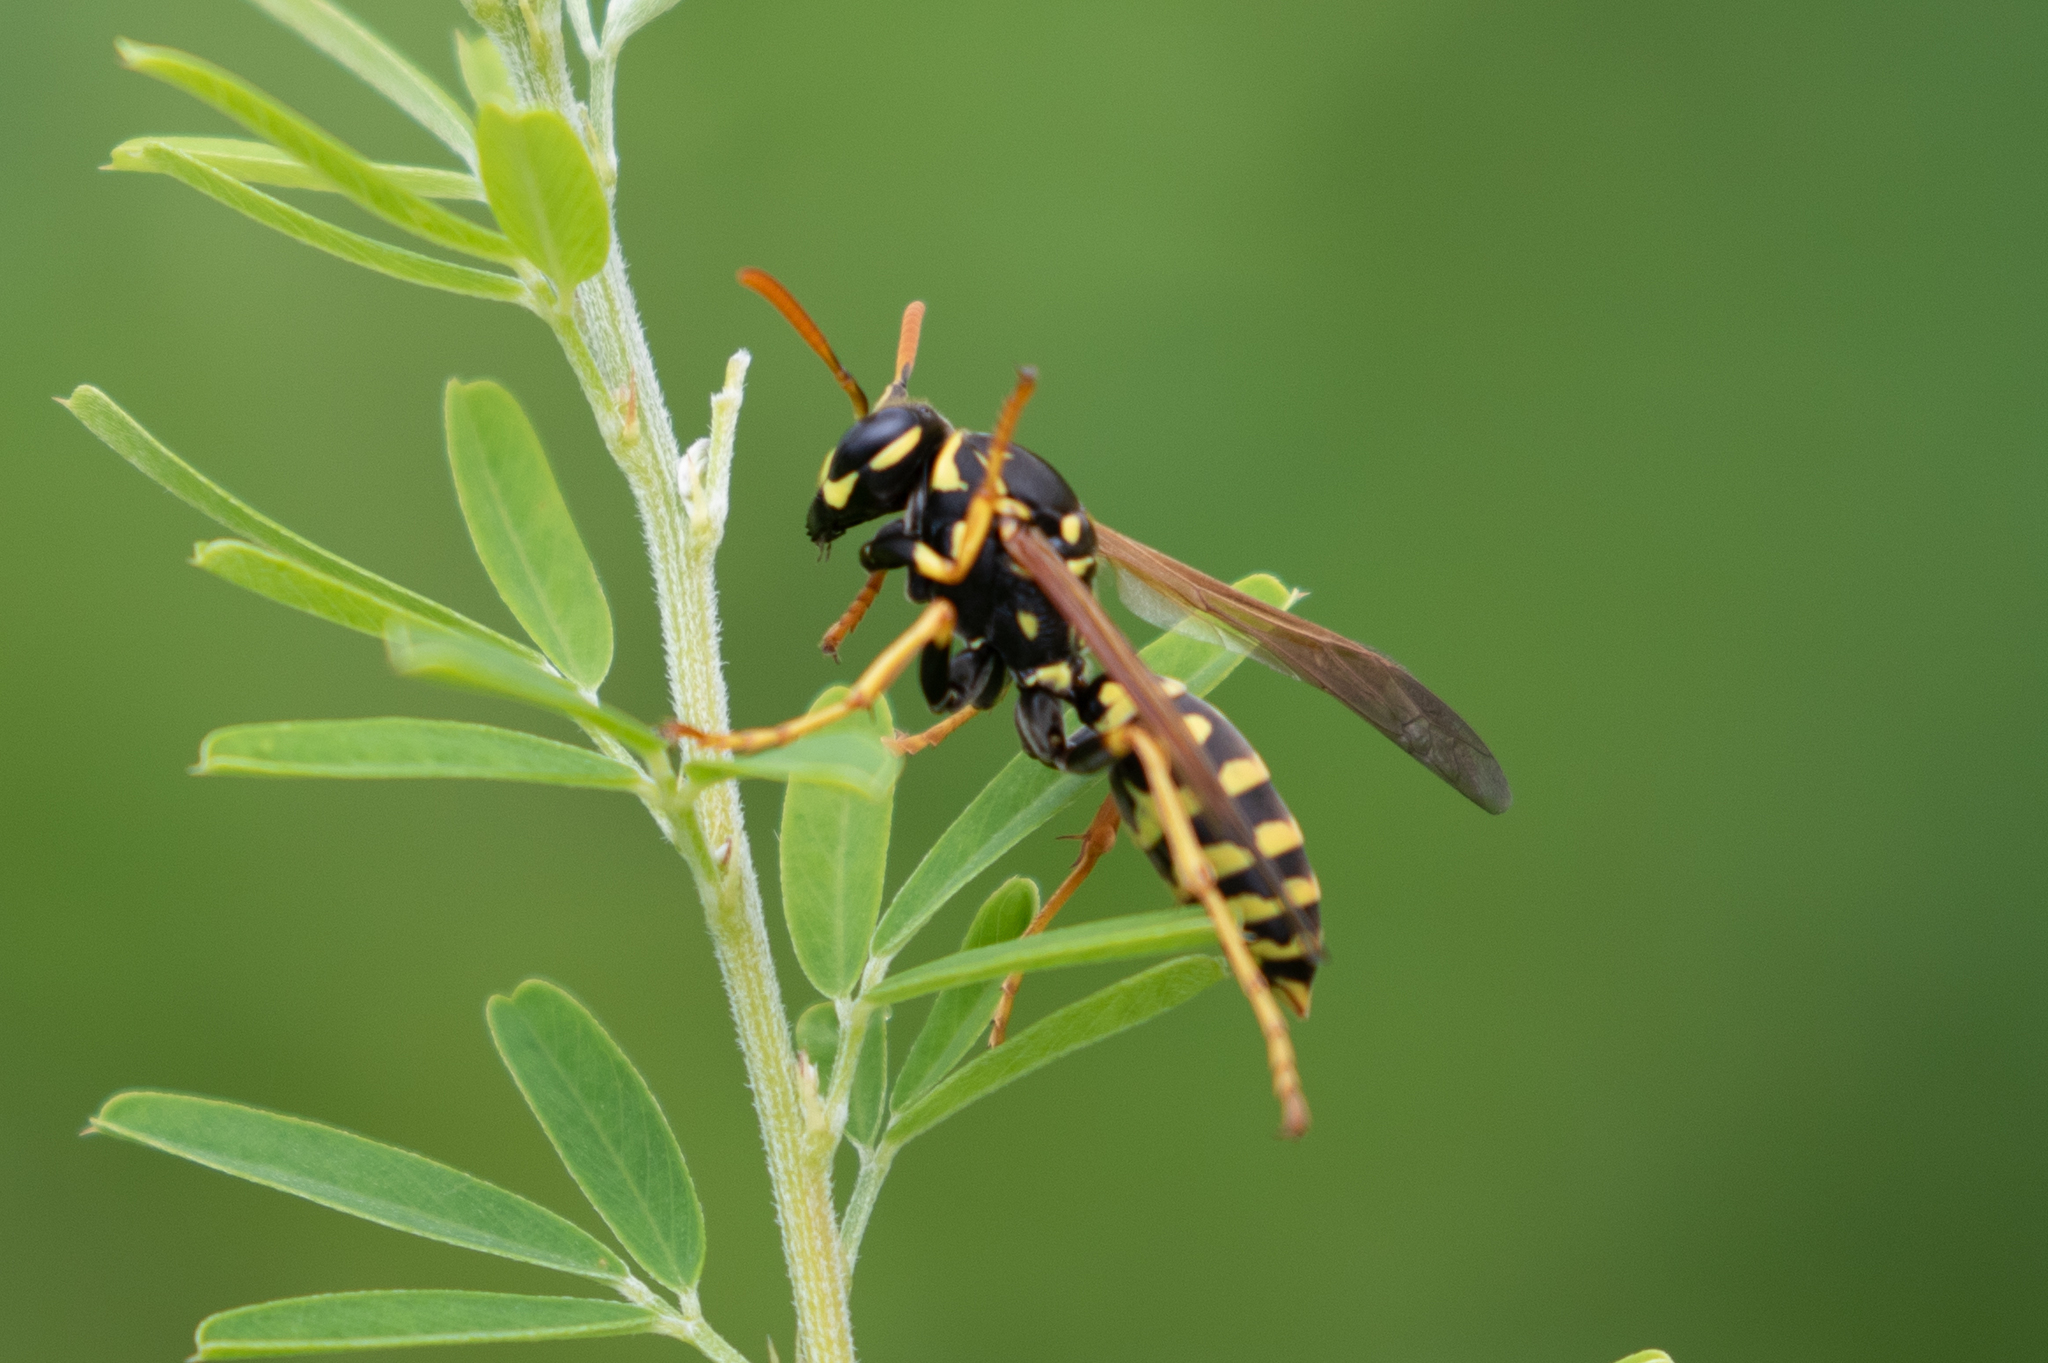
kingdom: Animalia
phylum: Arthropoda
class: Insecta
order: Hymenoptera
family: Eumenidae
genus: Polistes
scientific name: Polistes dominula
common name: Paper wasp
